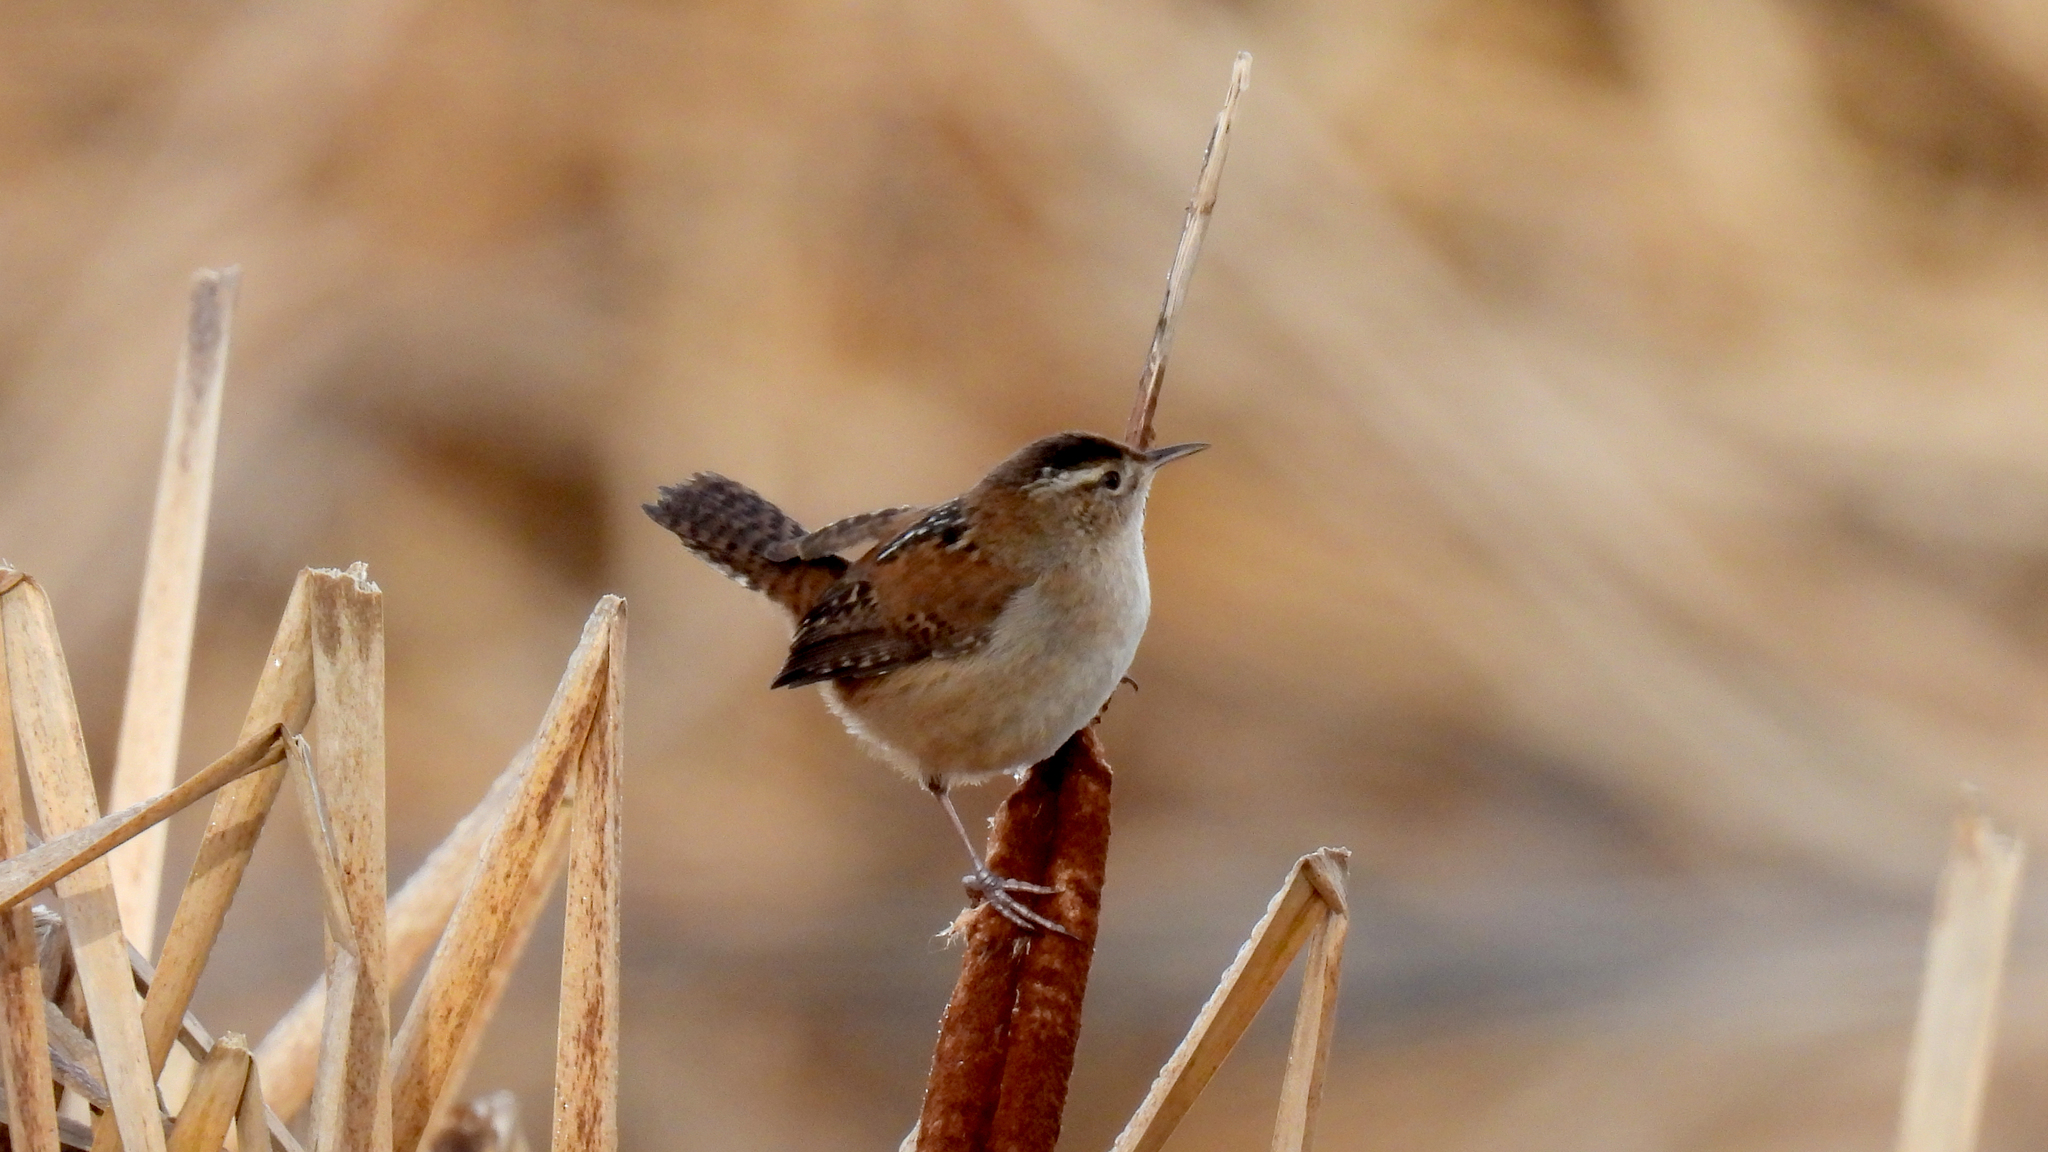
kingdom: Animalia
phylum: Chordata
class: Aves
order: Passeriformes
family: Troglodytidae
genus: Cistothorus
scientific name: Cistothorus palustris
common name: Marsh wren
